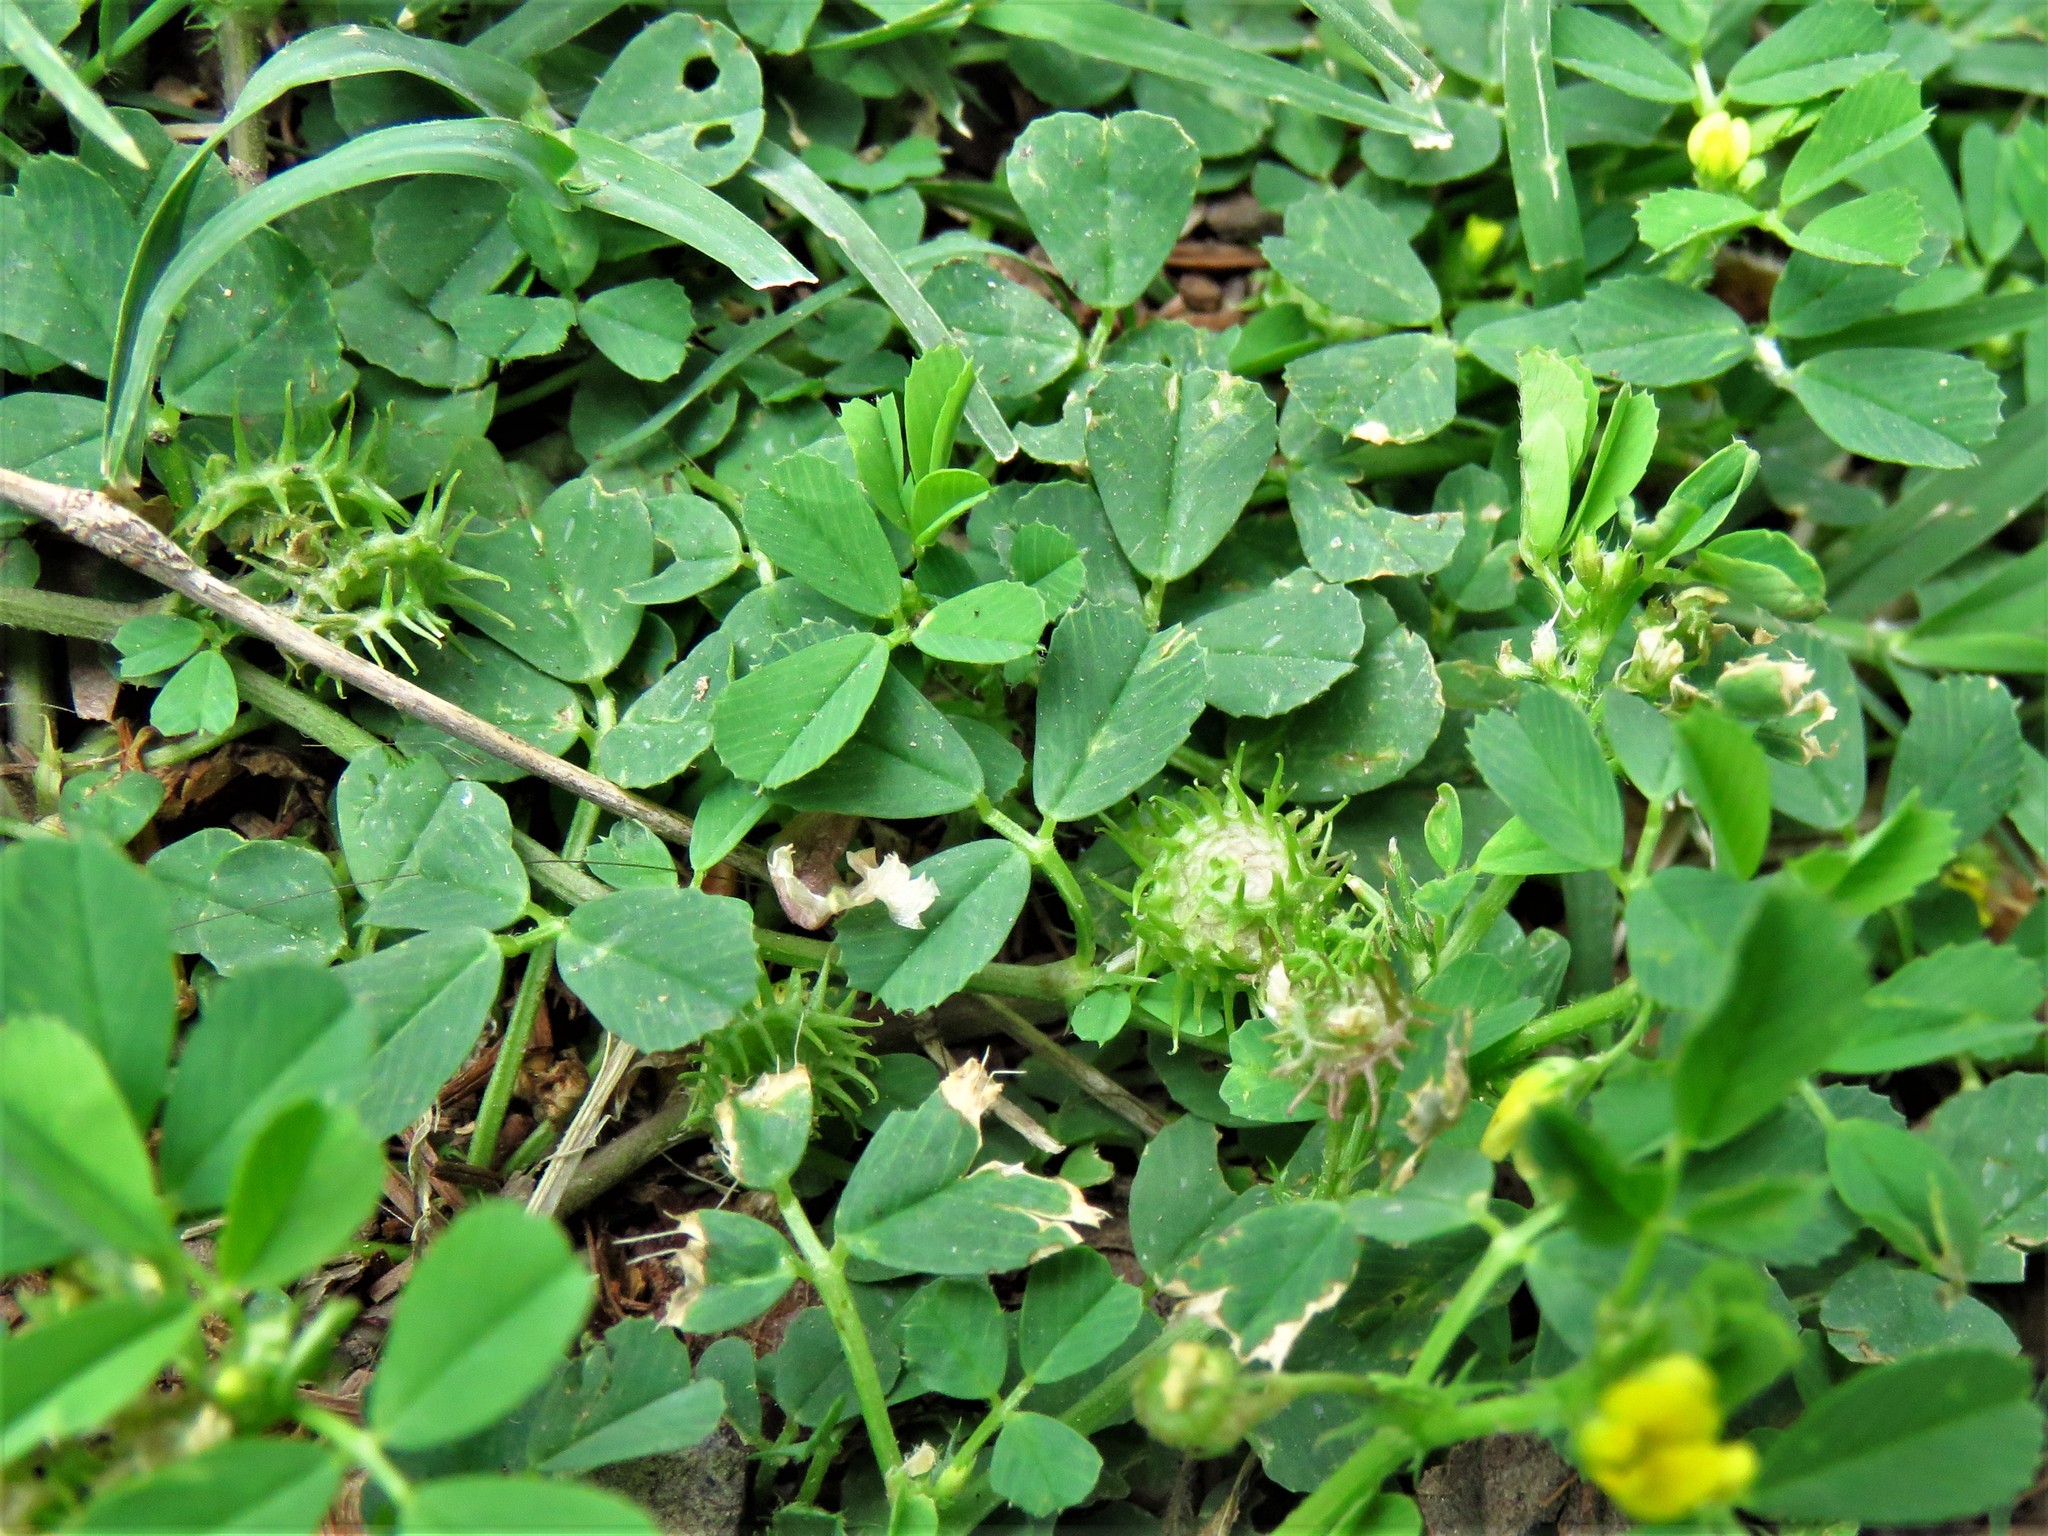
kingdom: Plantae
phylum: Tracheophyta
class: Magnoliopsida
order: Fabales
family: Fabaceae
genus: Medicago
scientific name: Medicago polymorpha
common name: Burclover
